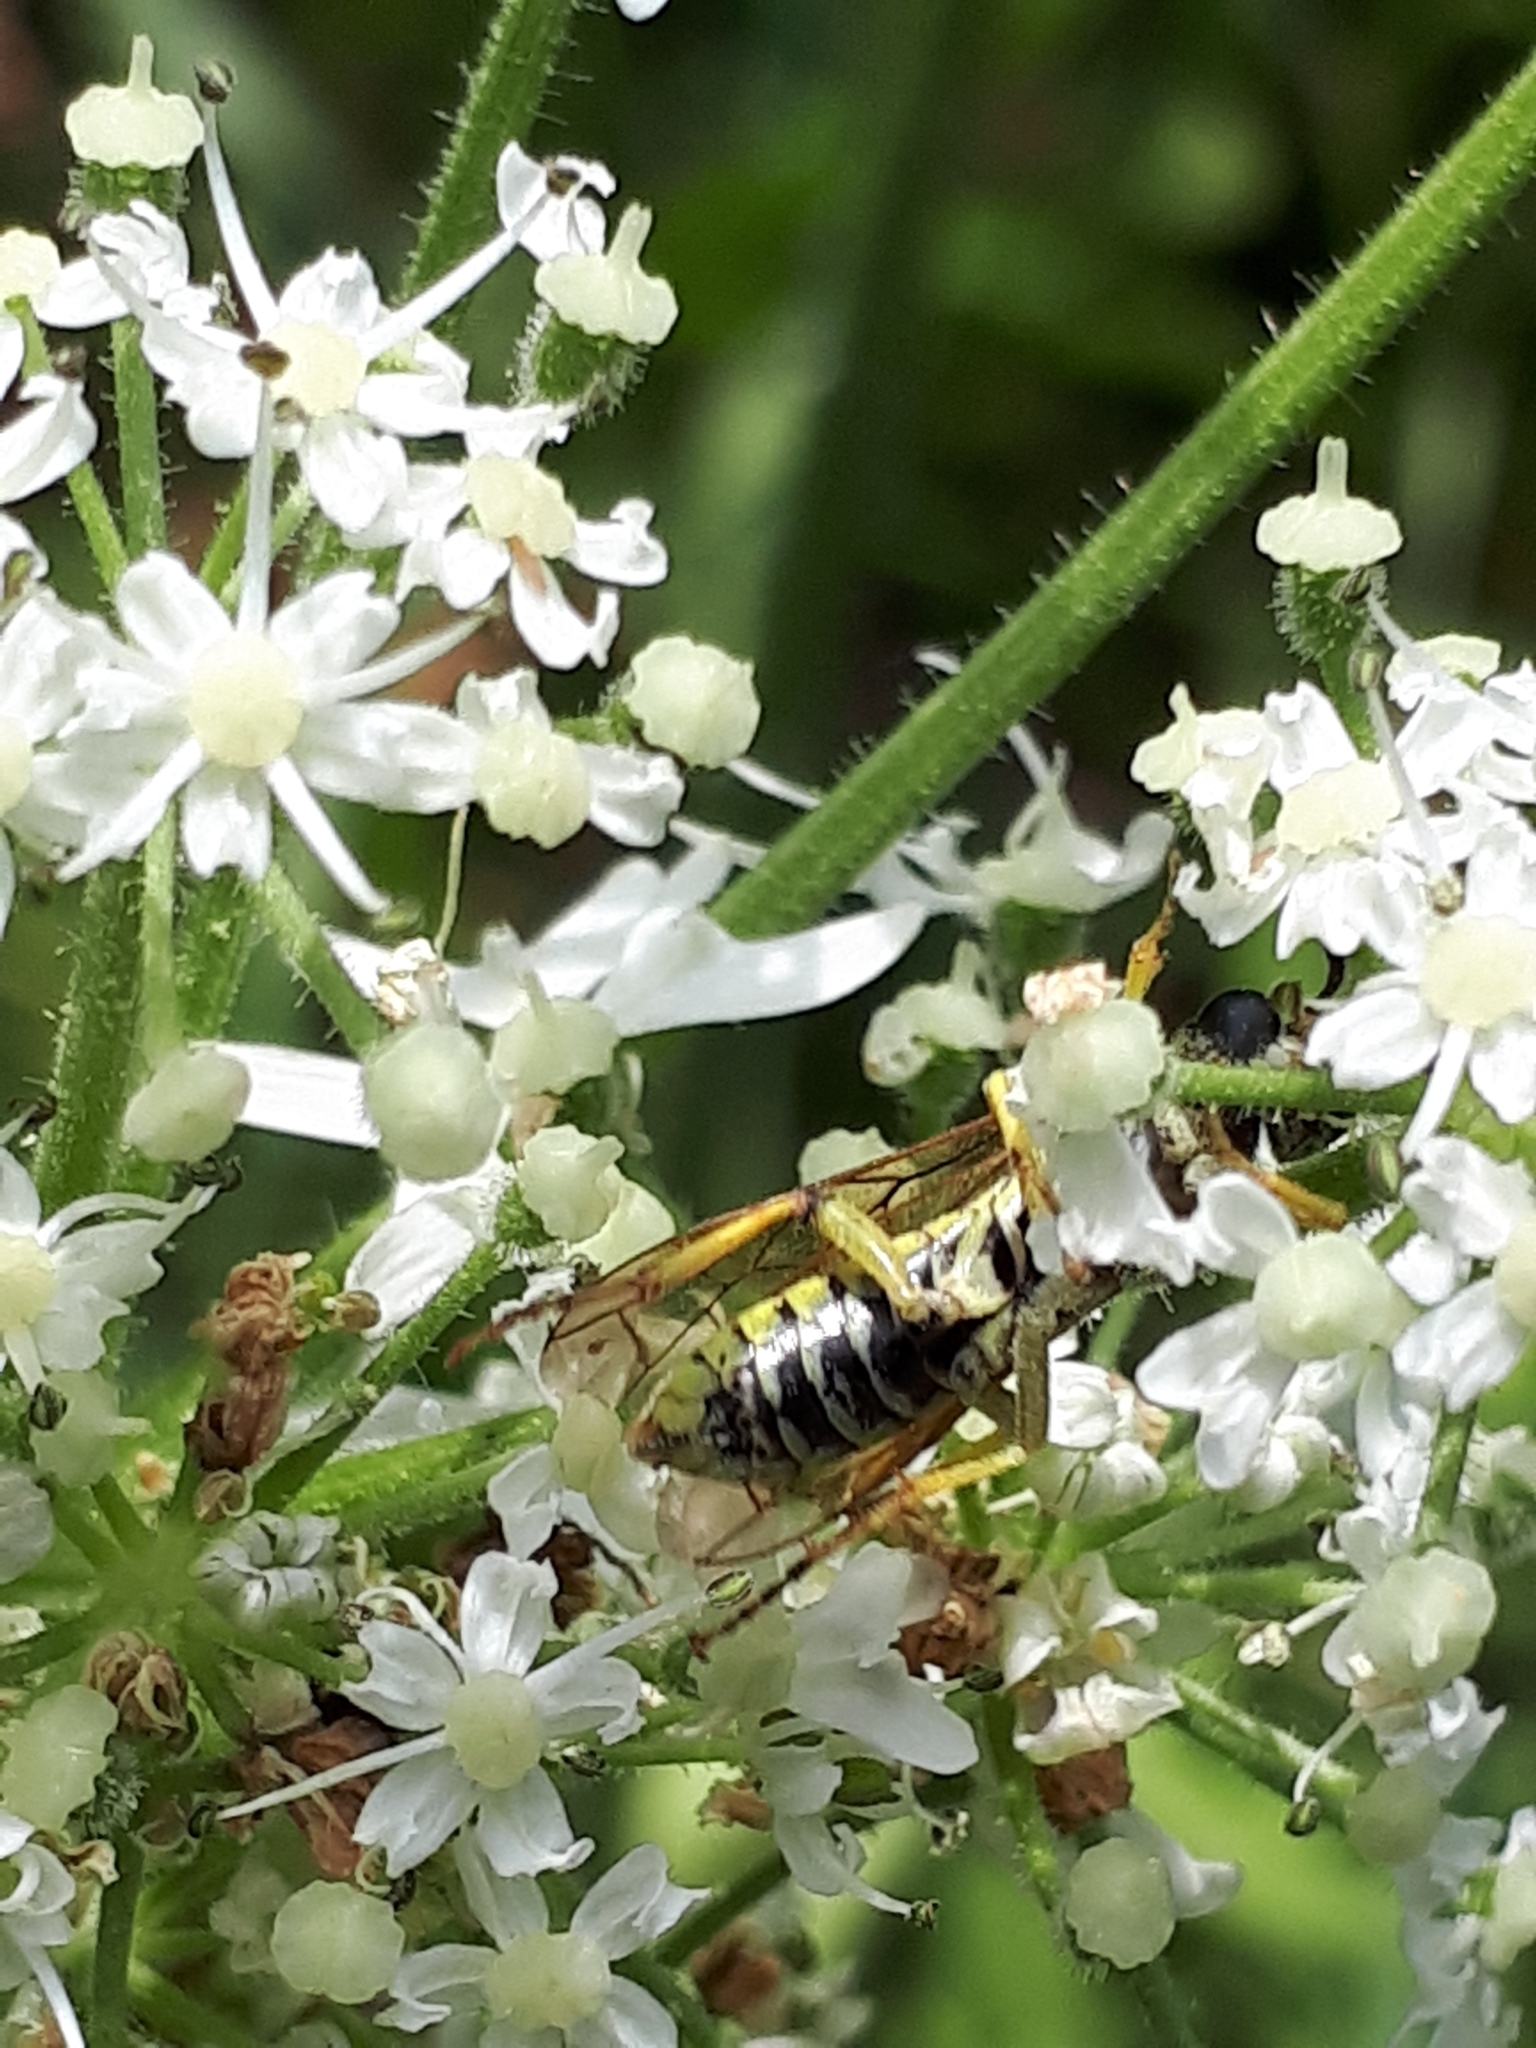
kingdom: Animalia
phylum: Arthropoda
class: Insecta
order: Hymenoptera
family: Tenthredinidae
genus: Tenthredo
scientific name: Tenthredo notha
